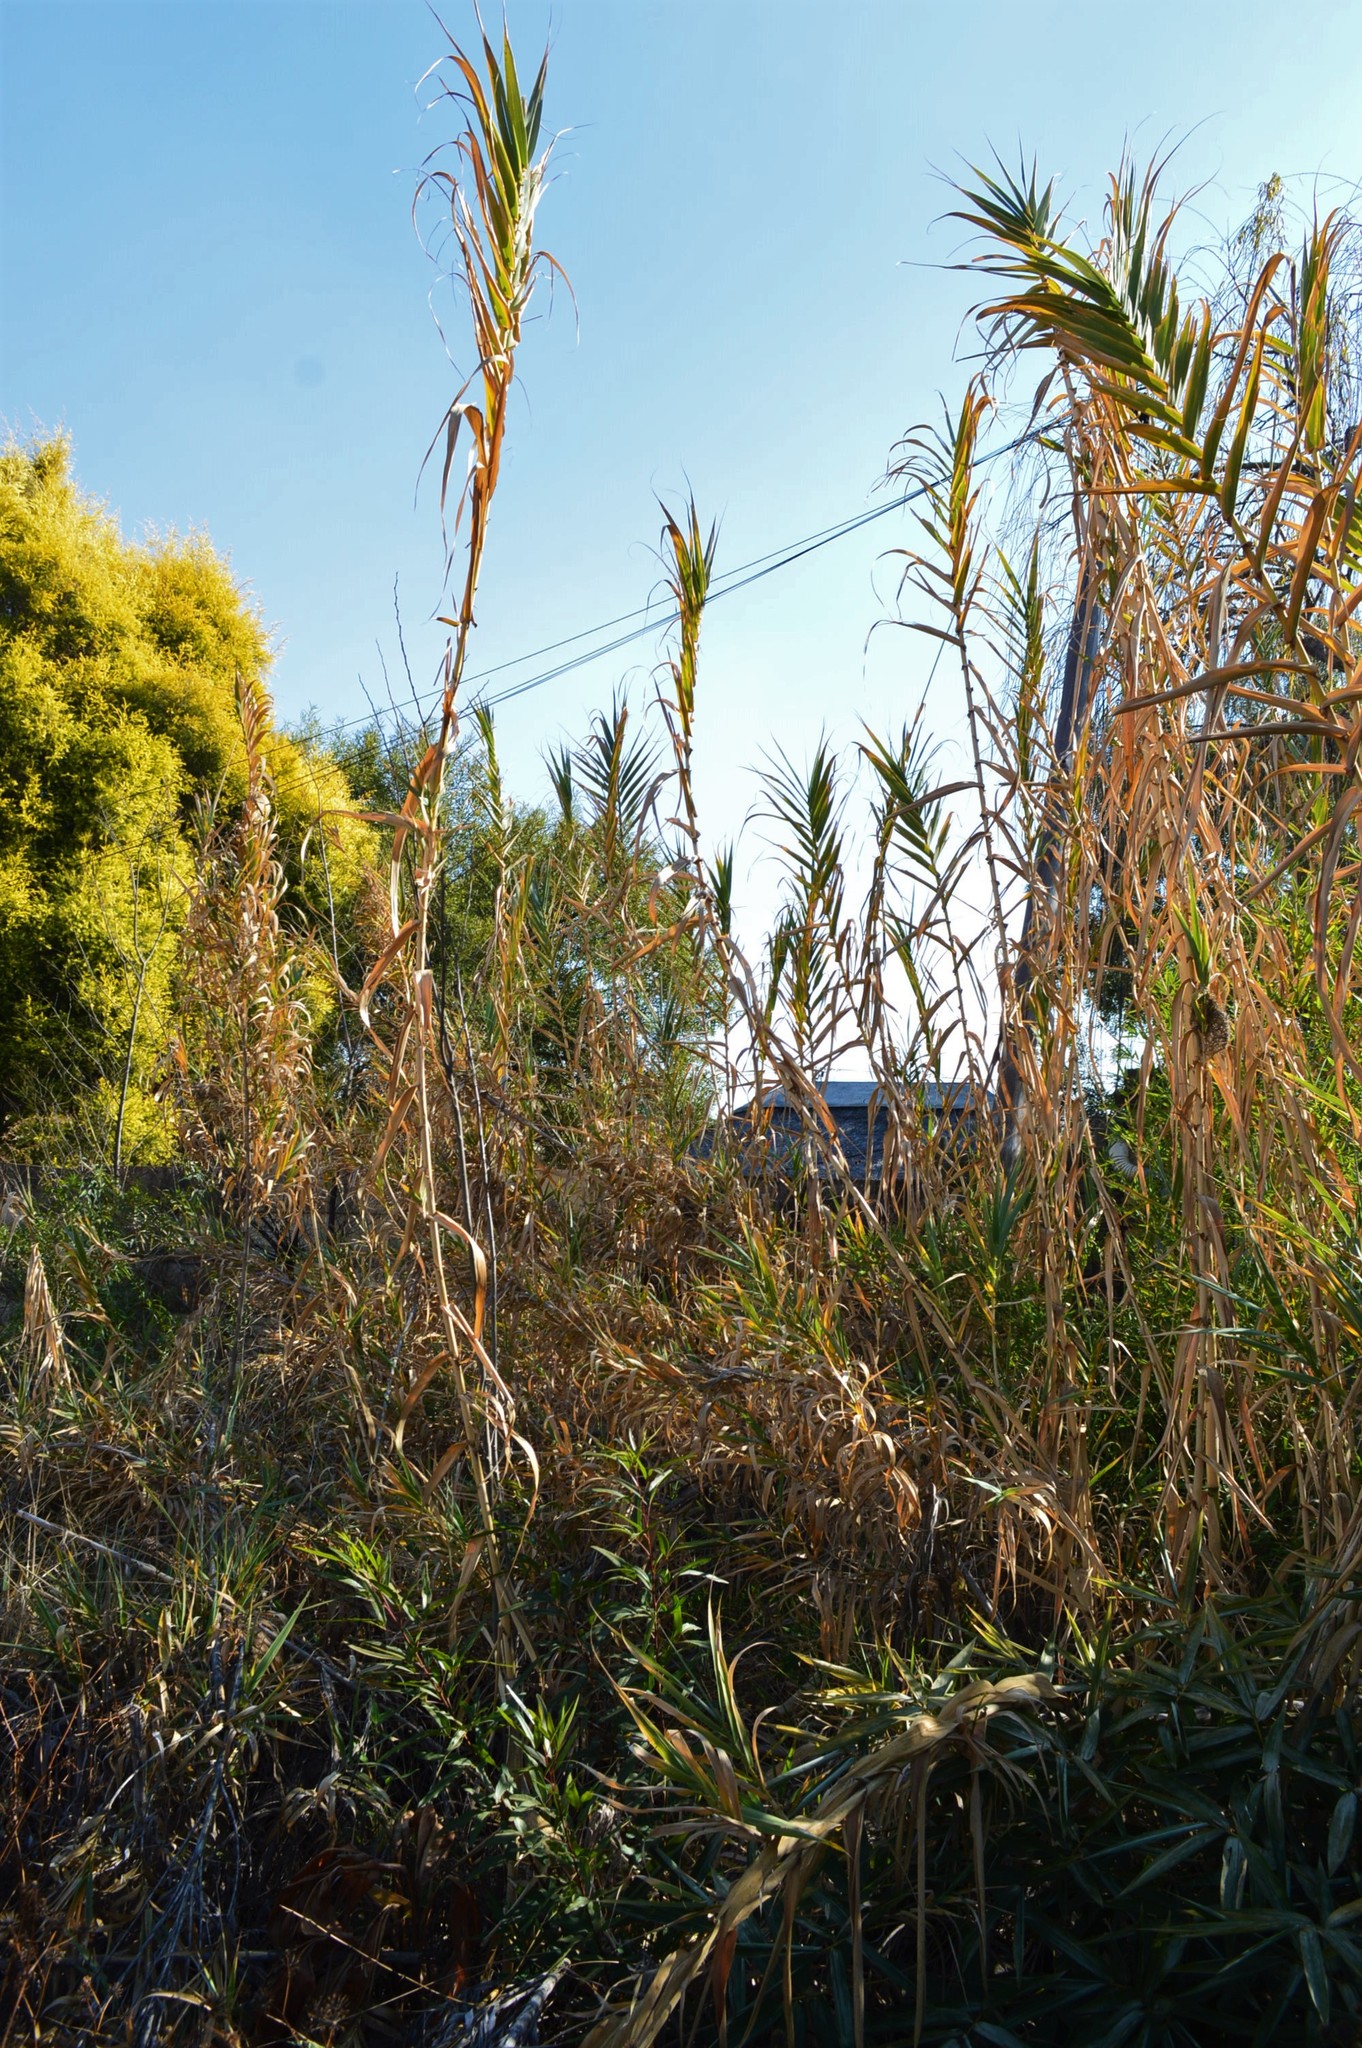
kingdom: Plantae
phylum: Tracheophyta
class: Liliopsida
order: Poales
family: Poaceae
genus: Arundo
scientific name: Arundo donax
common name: Giant reed
